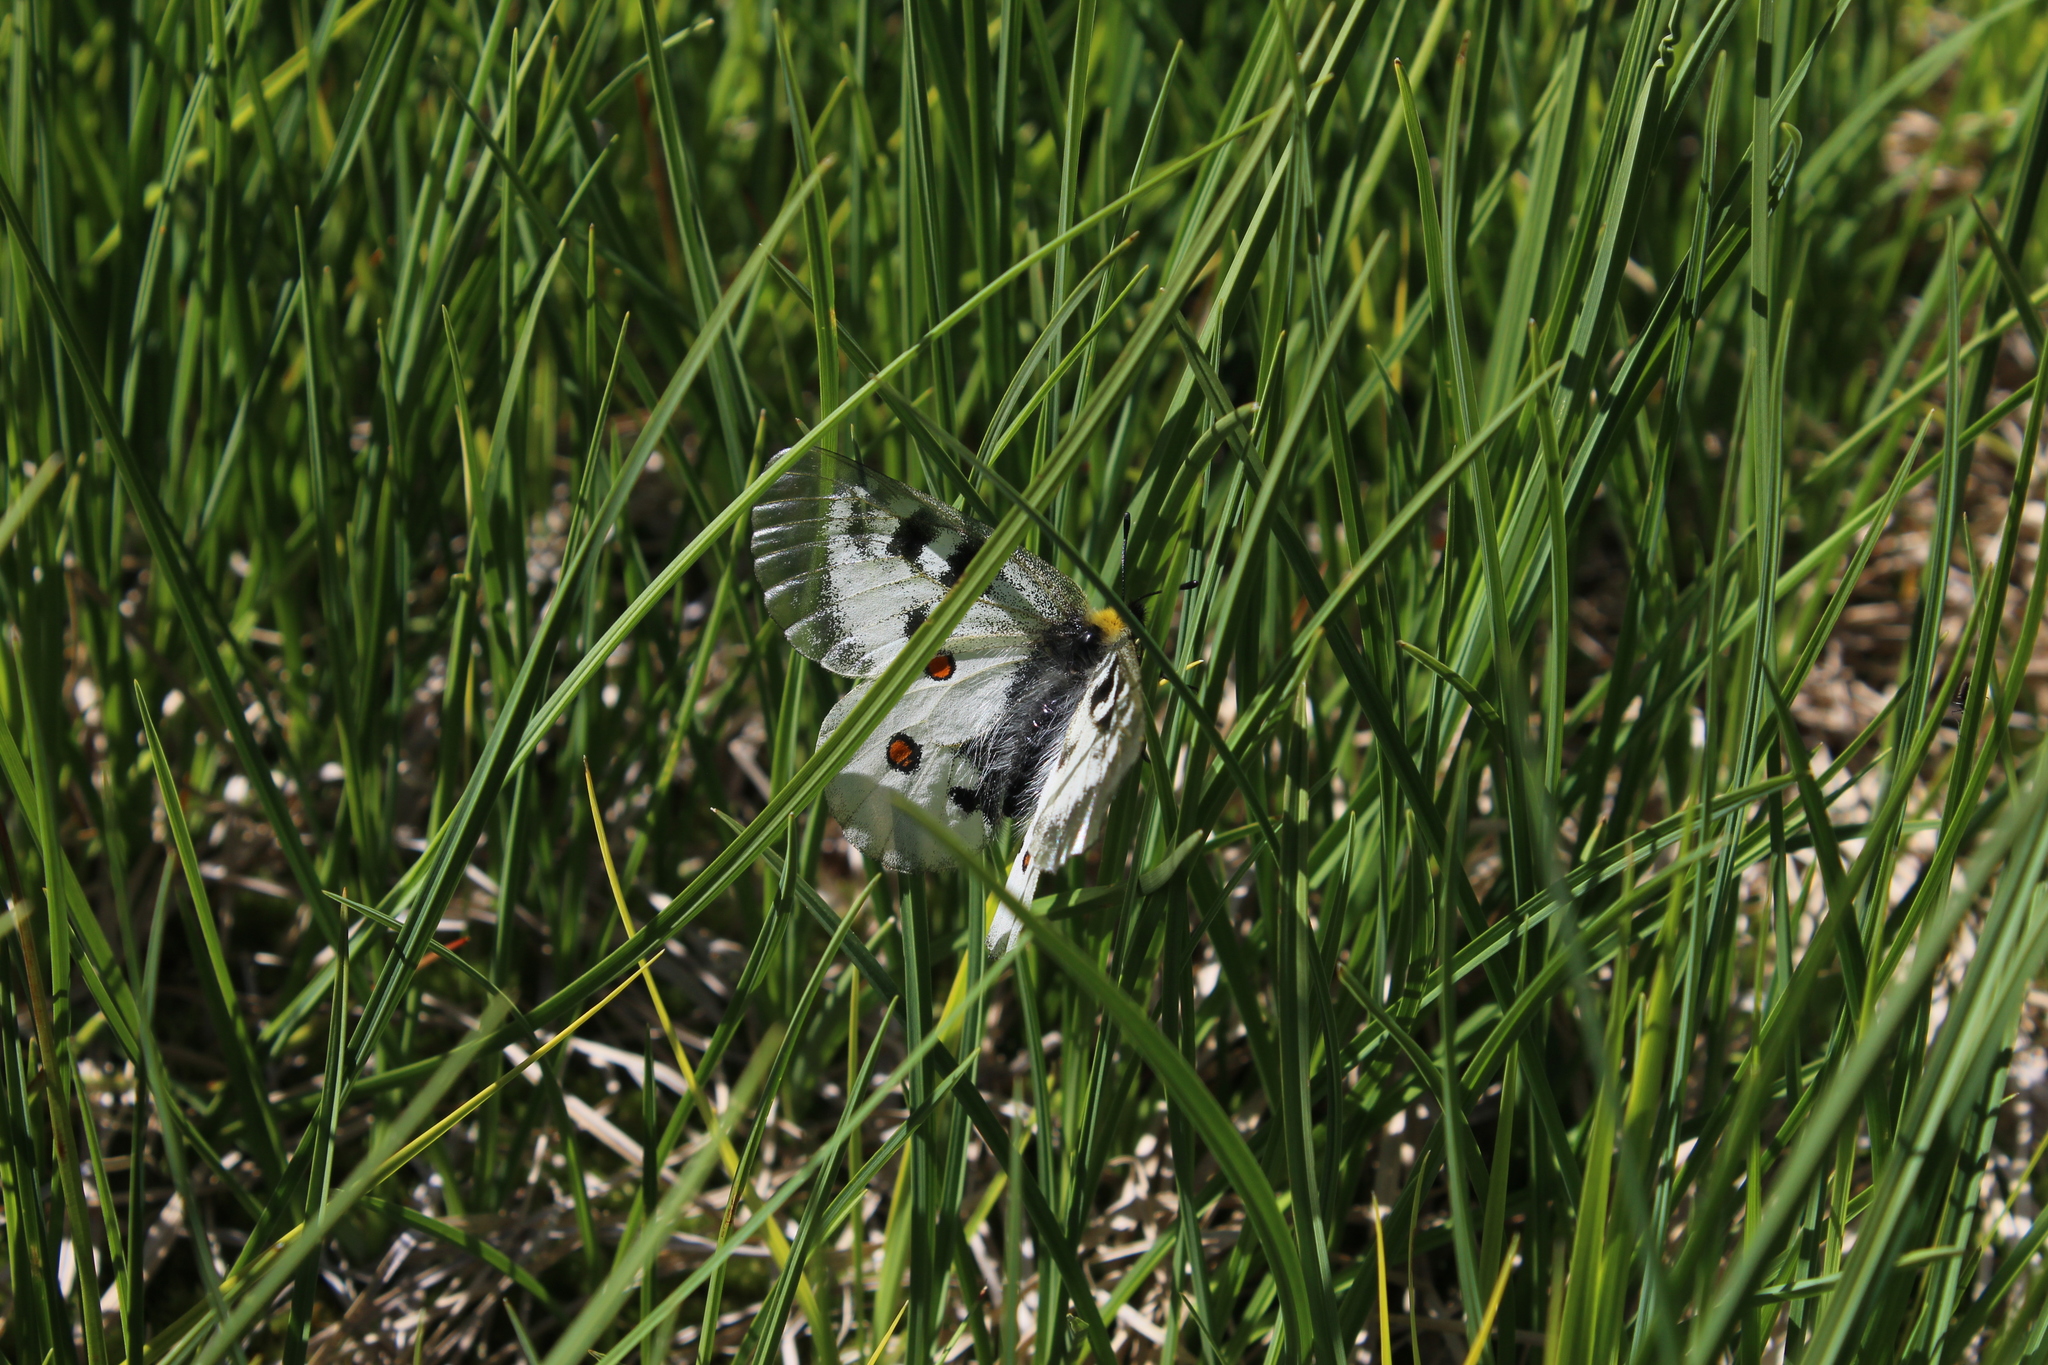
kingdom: Animalia
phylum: Arthropoda
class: Insecta
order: Lepidoptera
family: Papilionidae
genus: Parnassius
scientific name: Parnassius nordmanni
